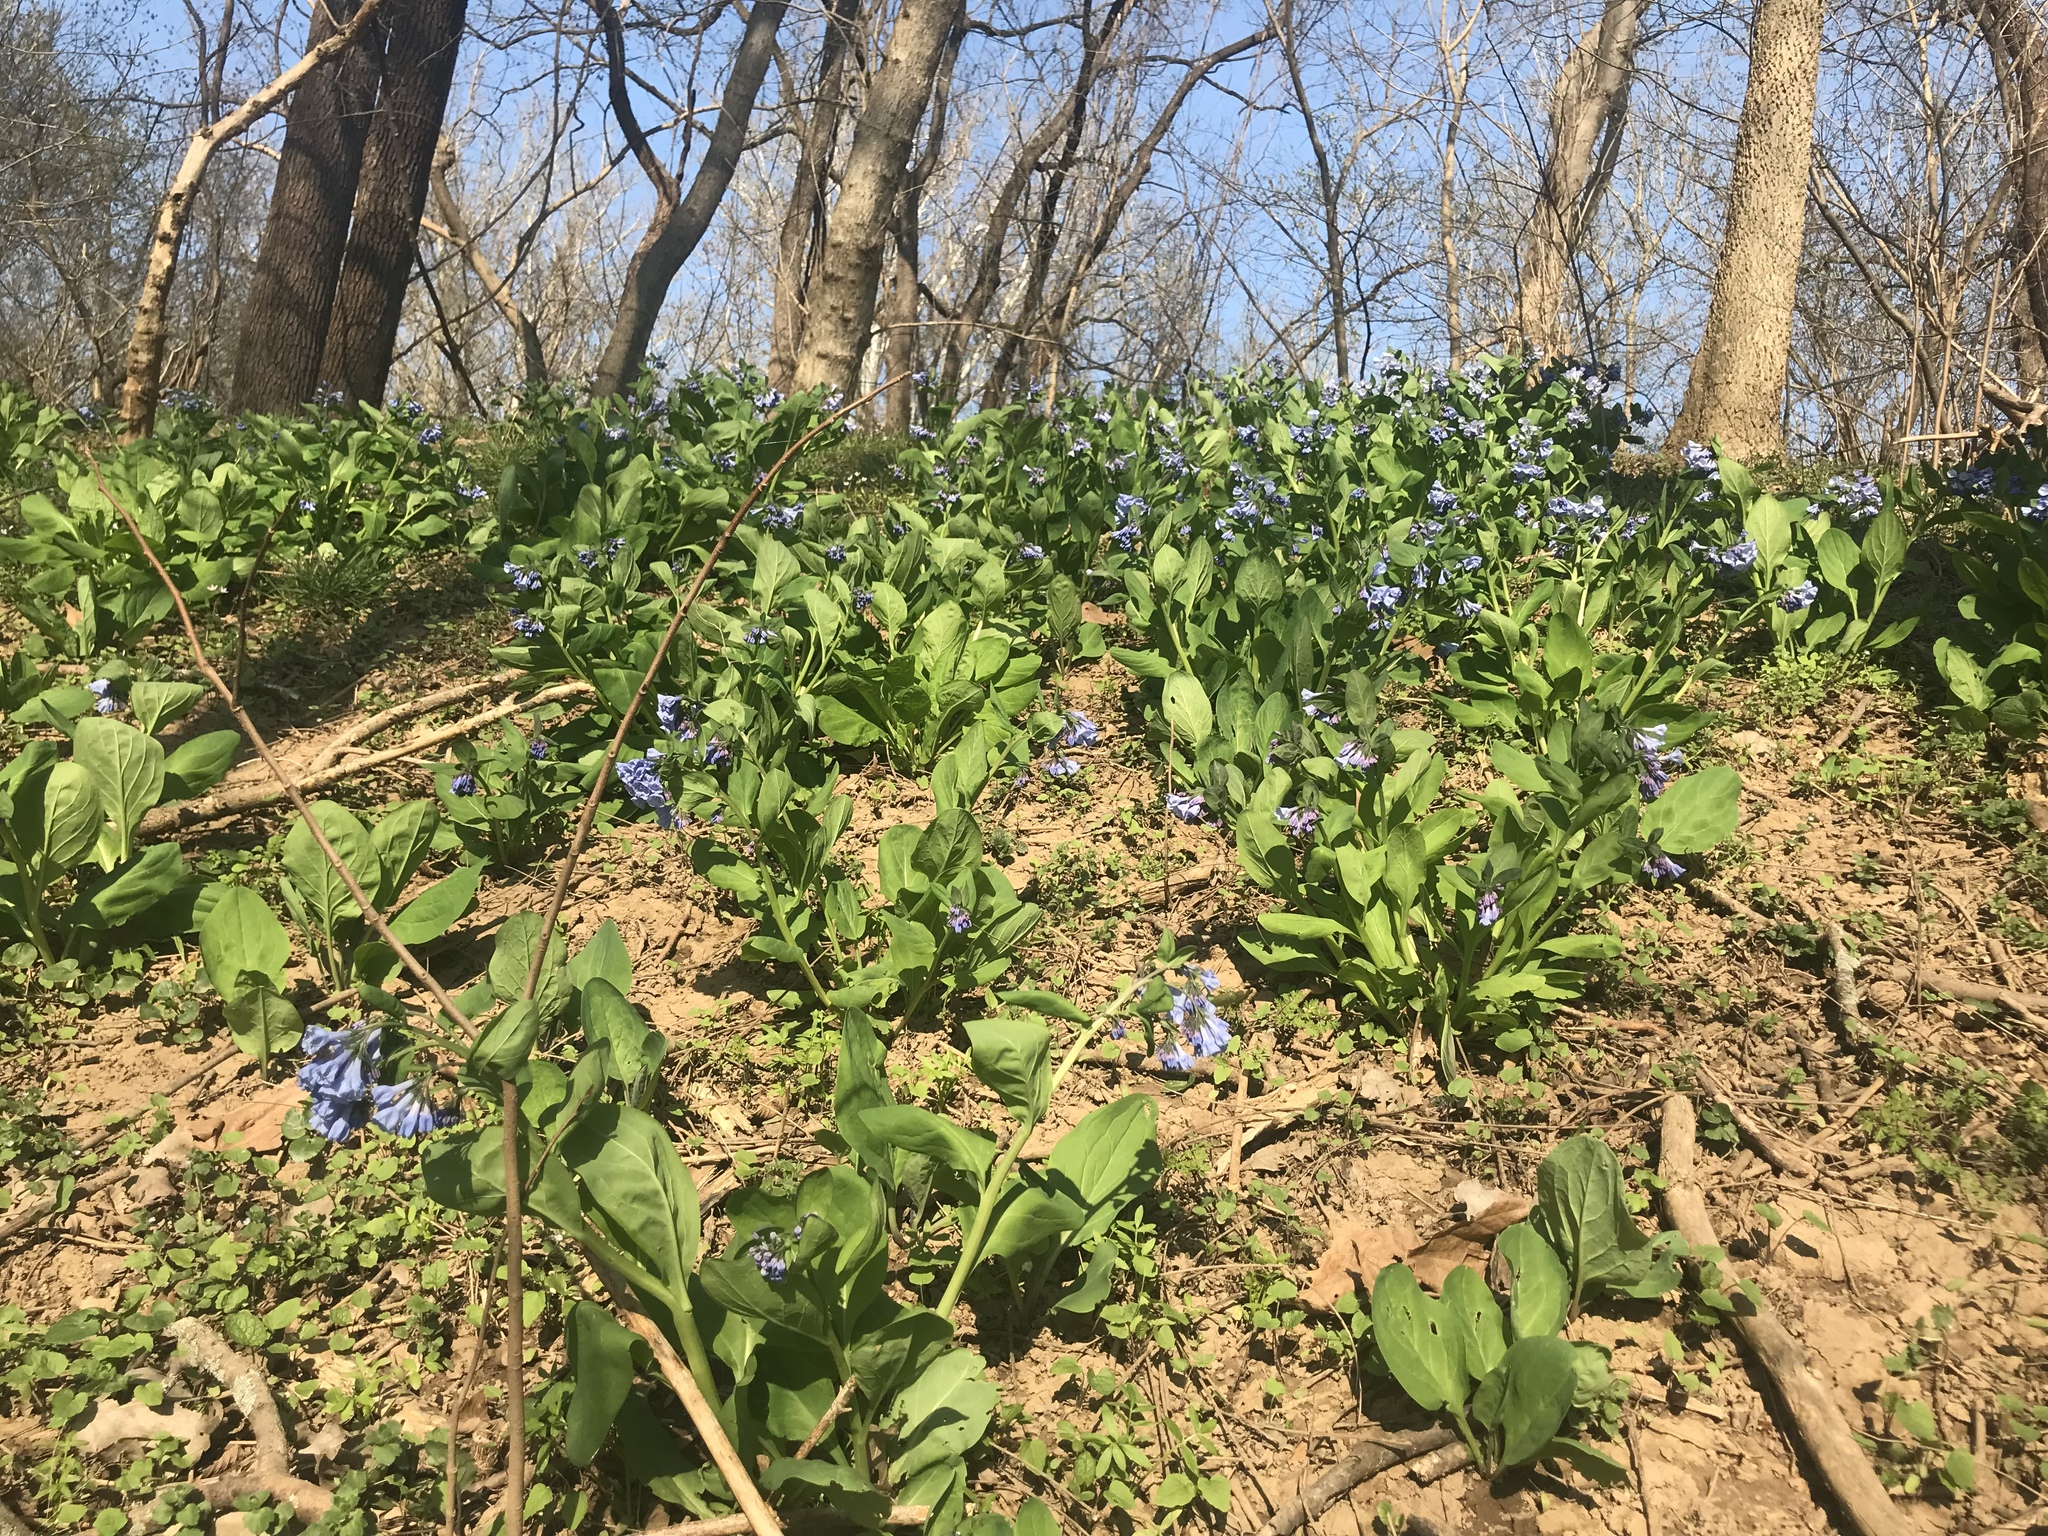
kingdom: Plantae
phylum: Tracheophyta
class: Magnoliopsida
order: Boraginales
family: Boraginaceae
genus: Mertensia
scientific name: Mertensia virginica
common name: Virginia bluebells
